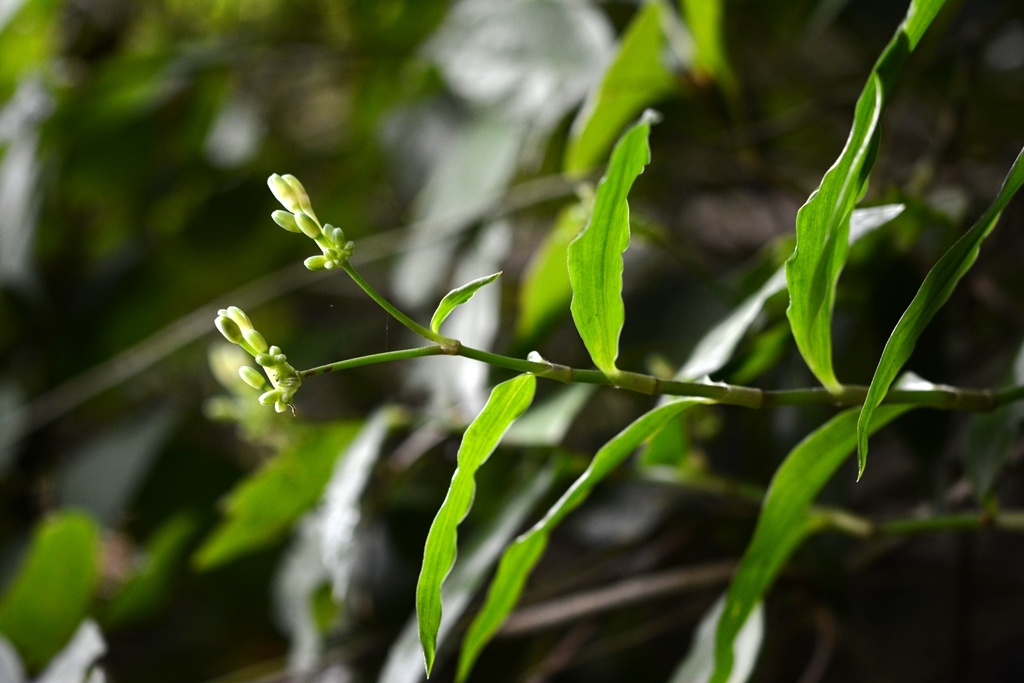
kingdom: Plantae
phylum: Tracheophyta
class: Liliopsida
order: Commelinales
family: Commelinaceae
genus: Callisia
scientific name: Callisia serrulata
